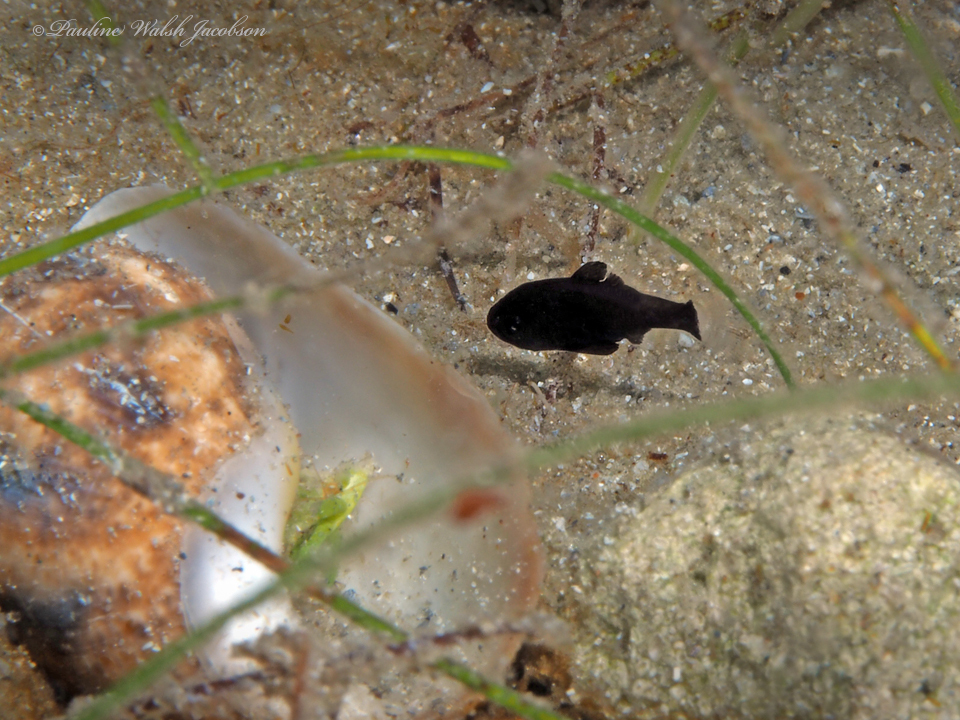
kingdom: Animalia
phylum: Chordata
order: Perciformes
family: Apogonidae
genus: Astrapogon
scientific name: Astrapogon alutus
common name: Bronze cardinalfish
